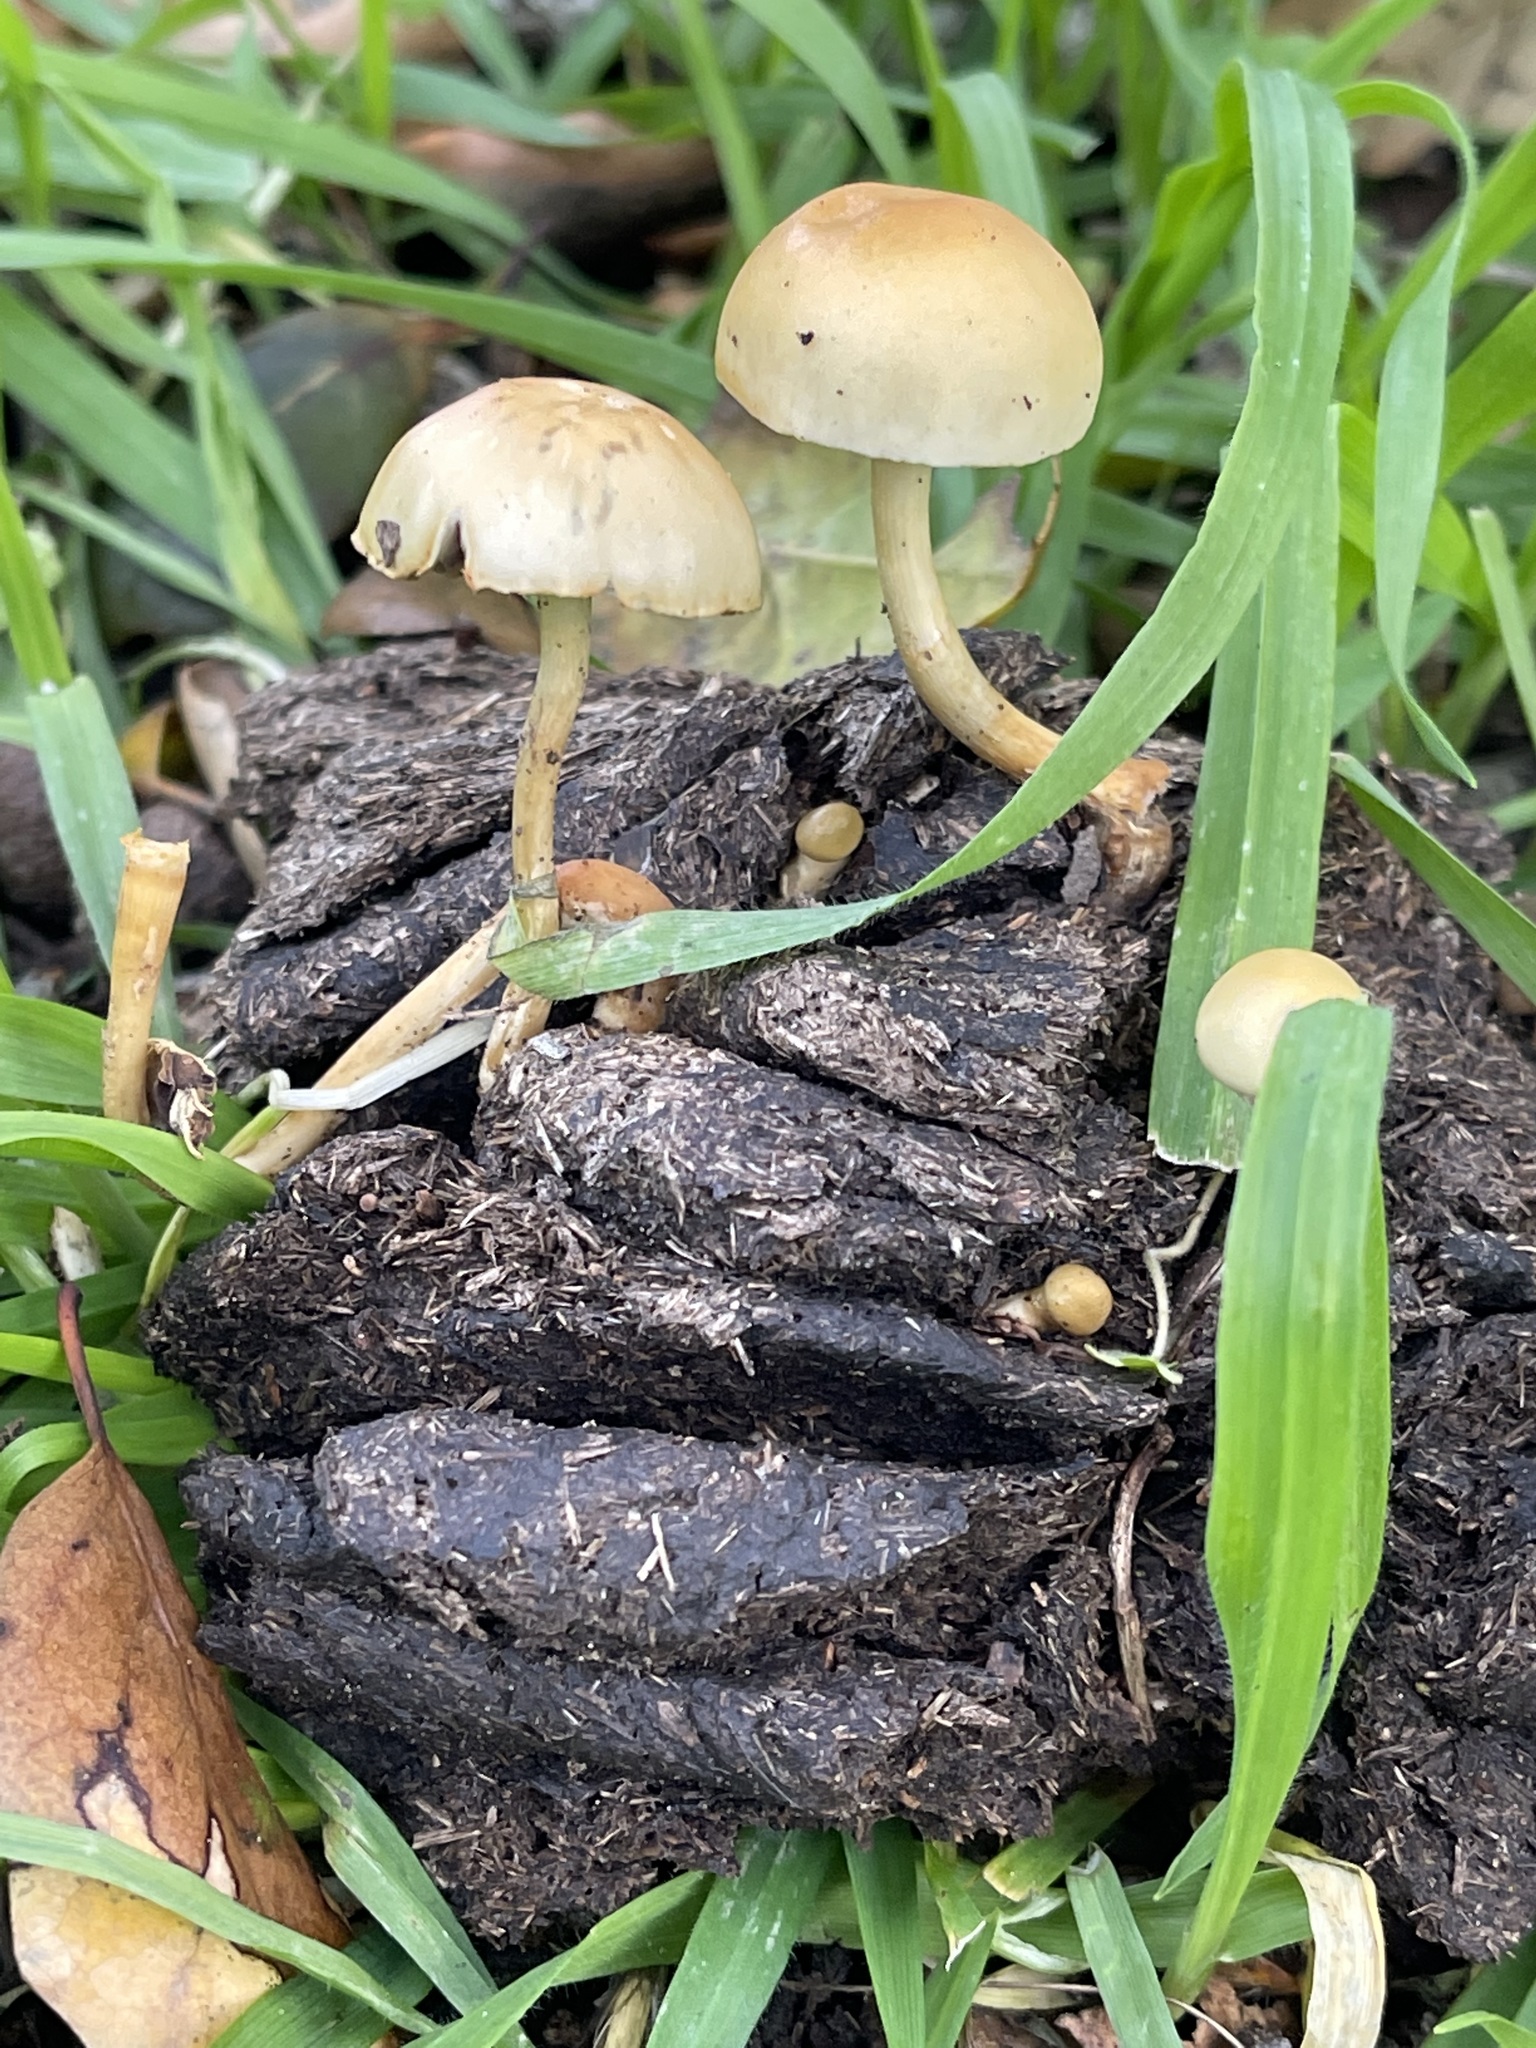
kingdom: Fungi
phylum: Basidiomycota
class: Agaricomycetes
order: Agaricales
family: Strophariaceae
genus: Protostropharia
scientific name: Protostropharia semiglobata
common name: Dung roundhead
